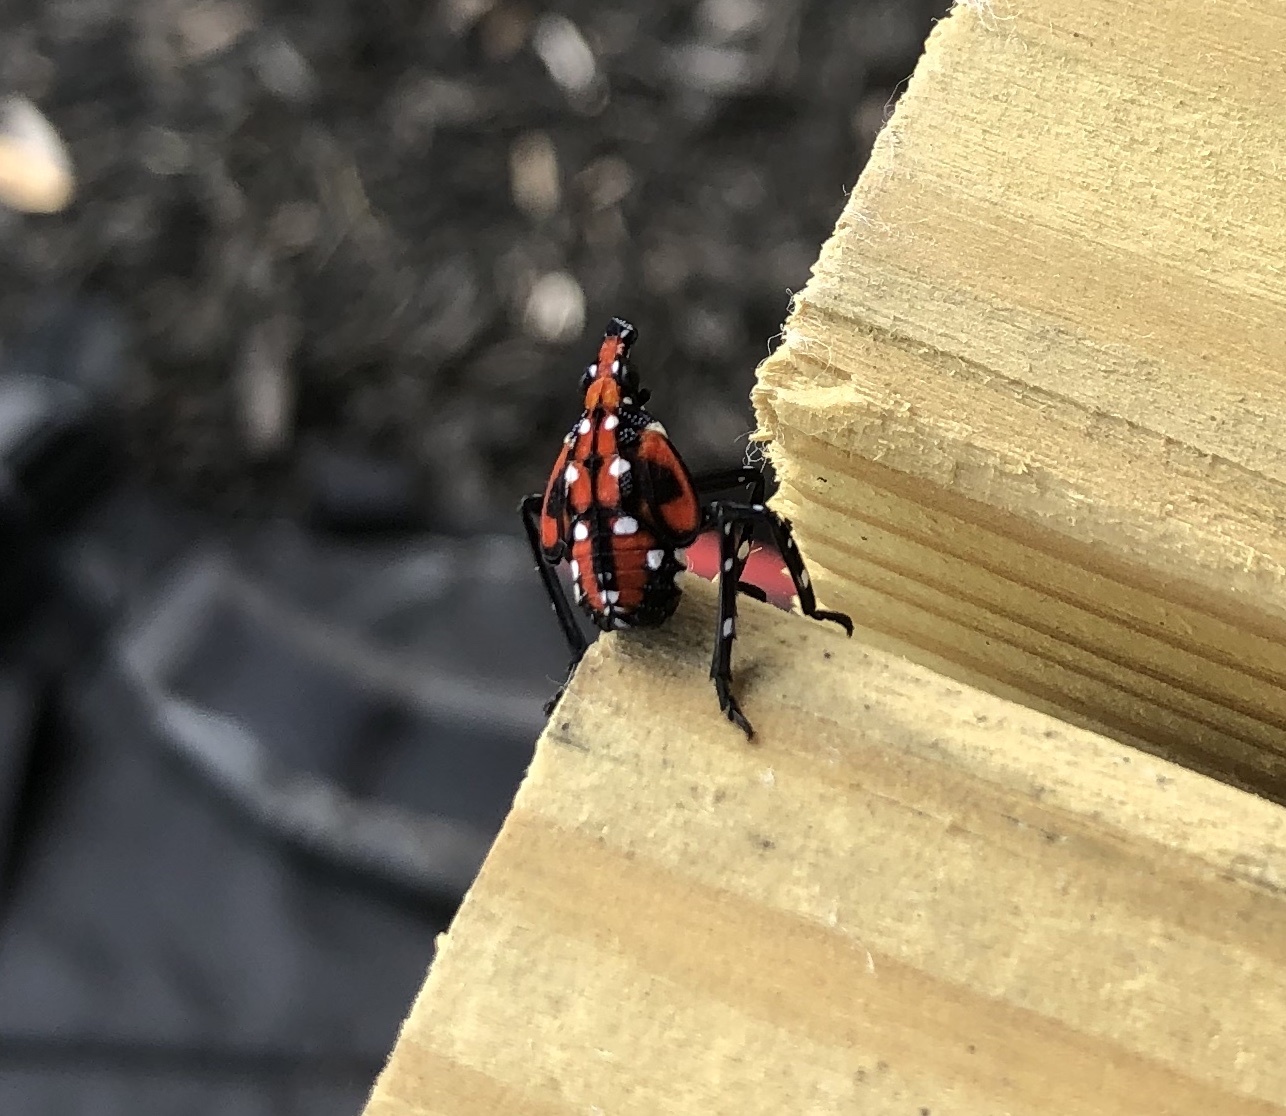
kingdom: Animalia
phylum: Arthropoda
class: Insecta
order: Hemiptera
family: Fulgoridae
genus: Lycorma
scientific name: Lycorma delicatula
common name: Spotted lanternfly
